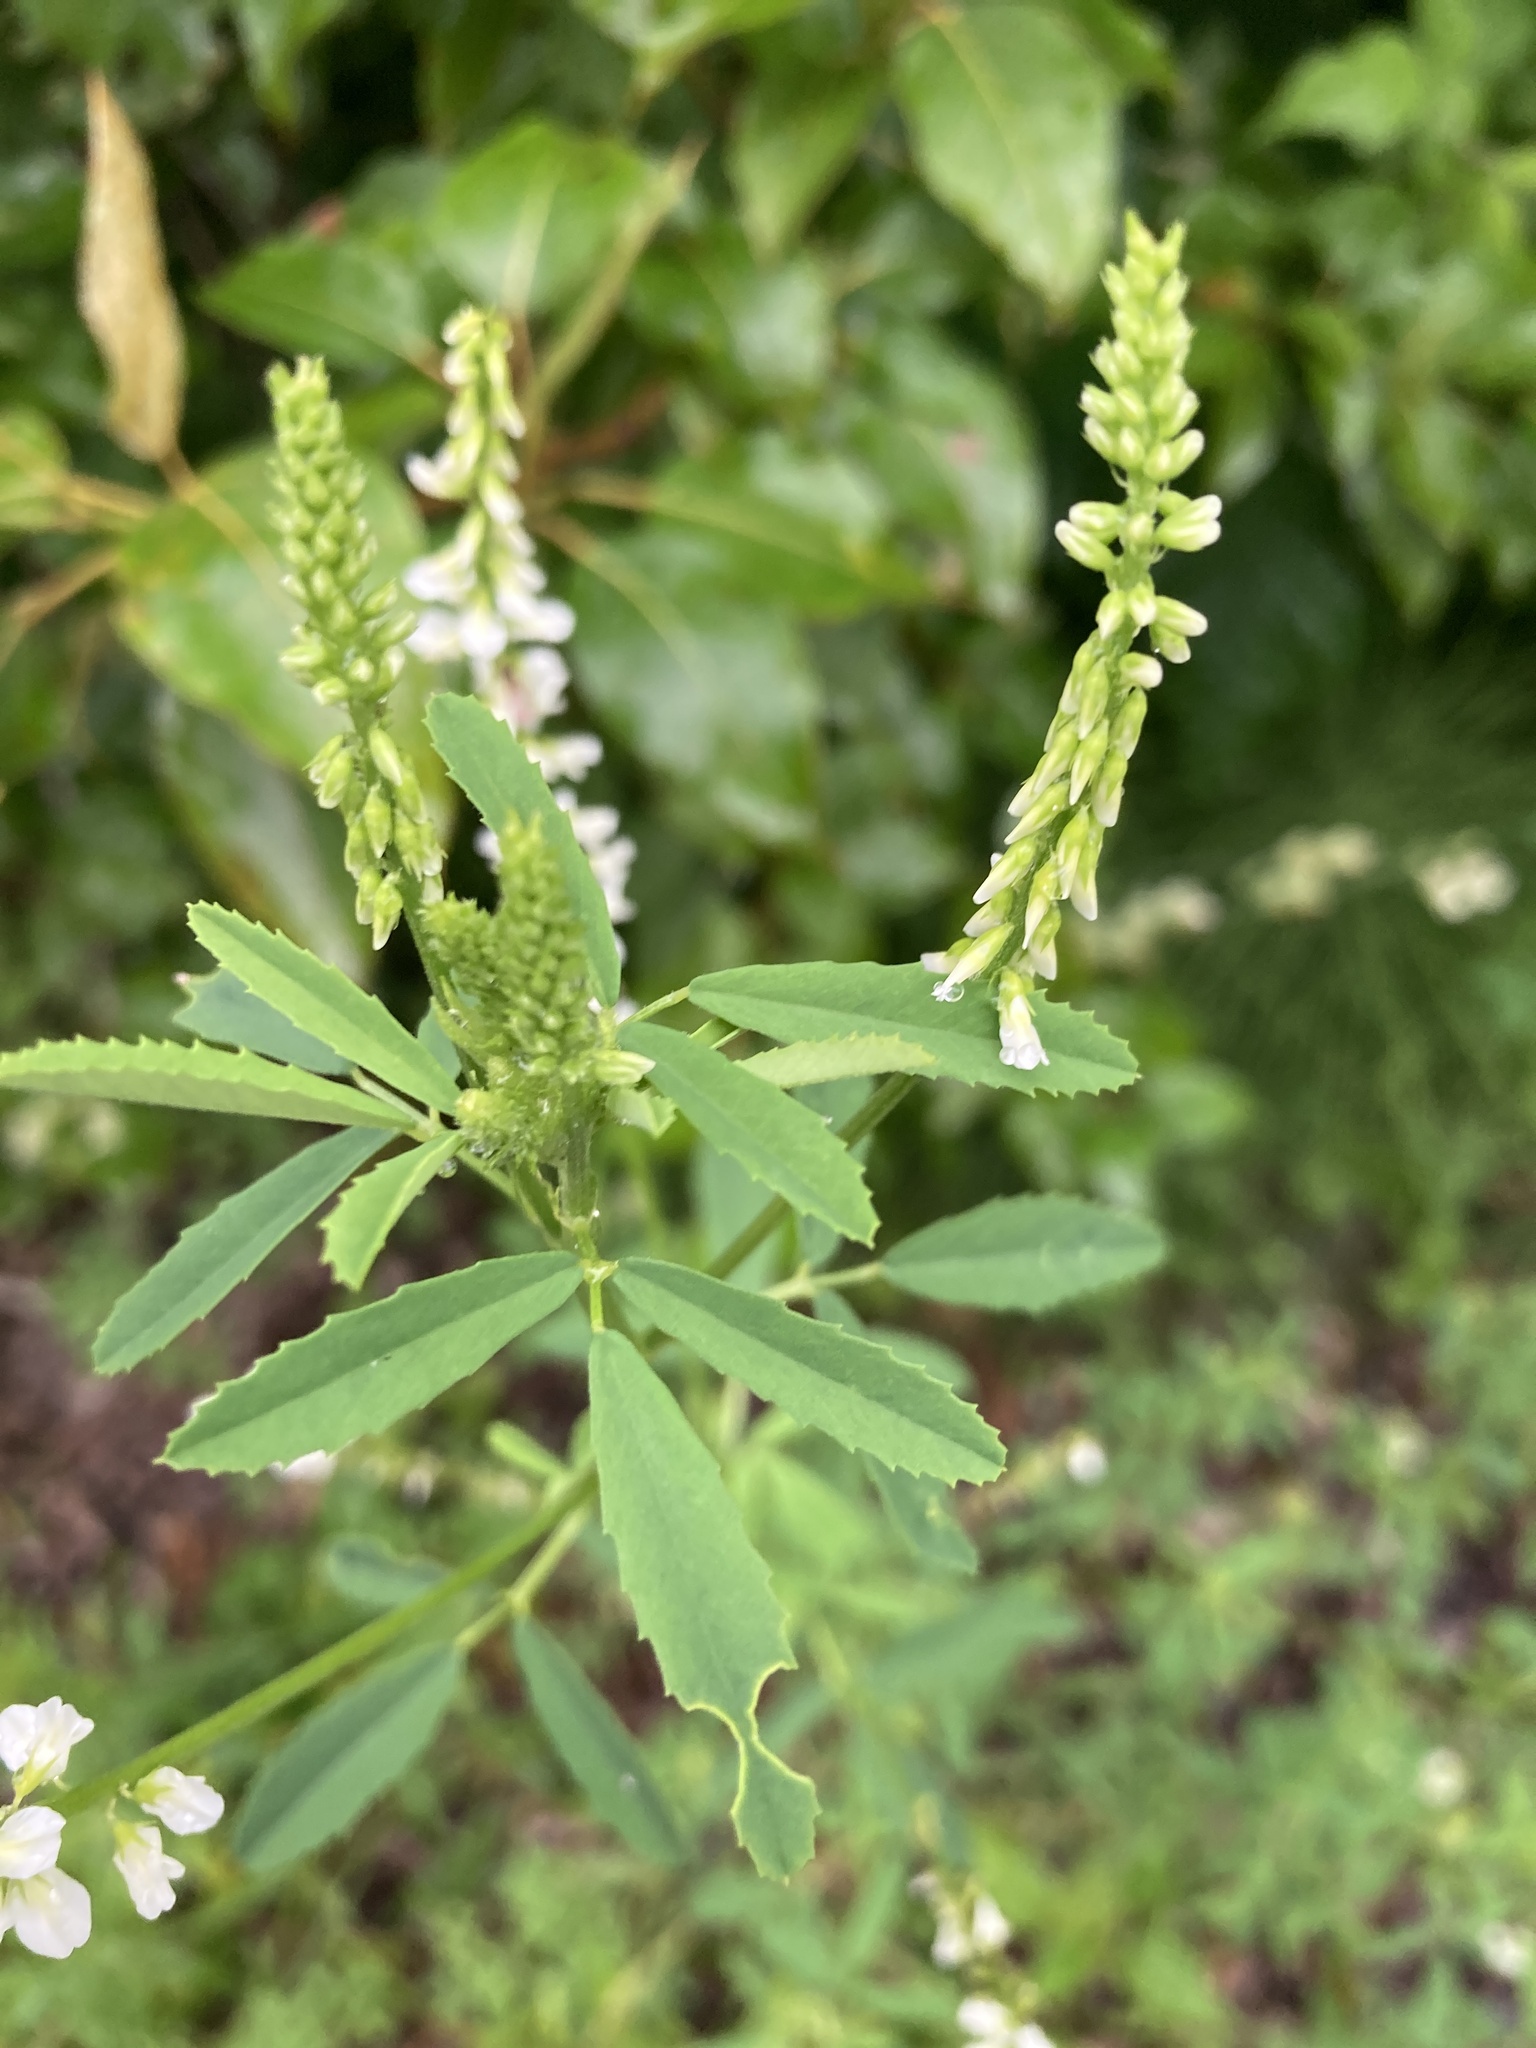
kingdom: Plantae
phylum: Tracheophyta
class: Magnoliopsida
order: Fabales
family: Fabaceae
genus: Melilotus
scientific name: Melilotus albus
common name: White melilot
